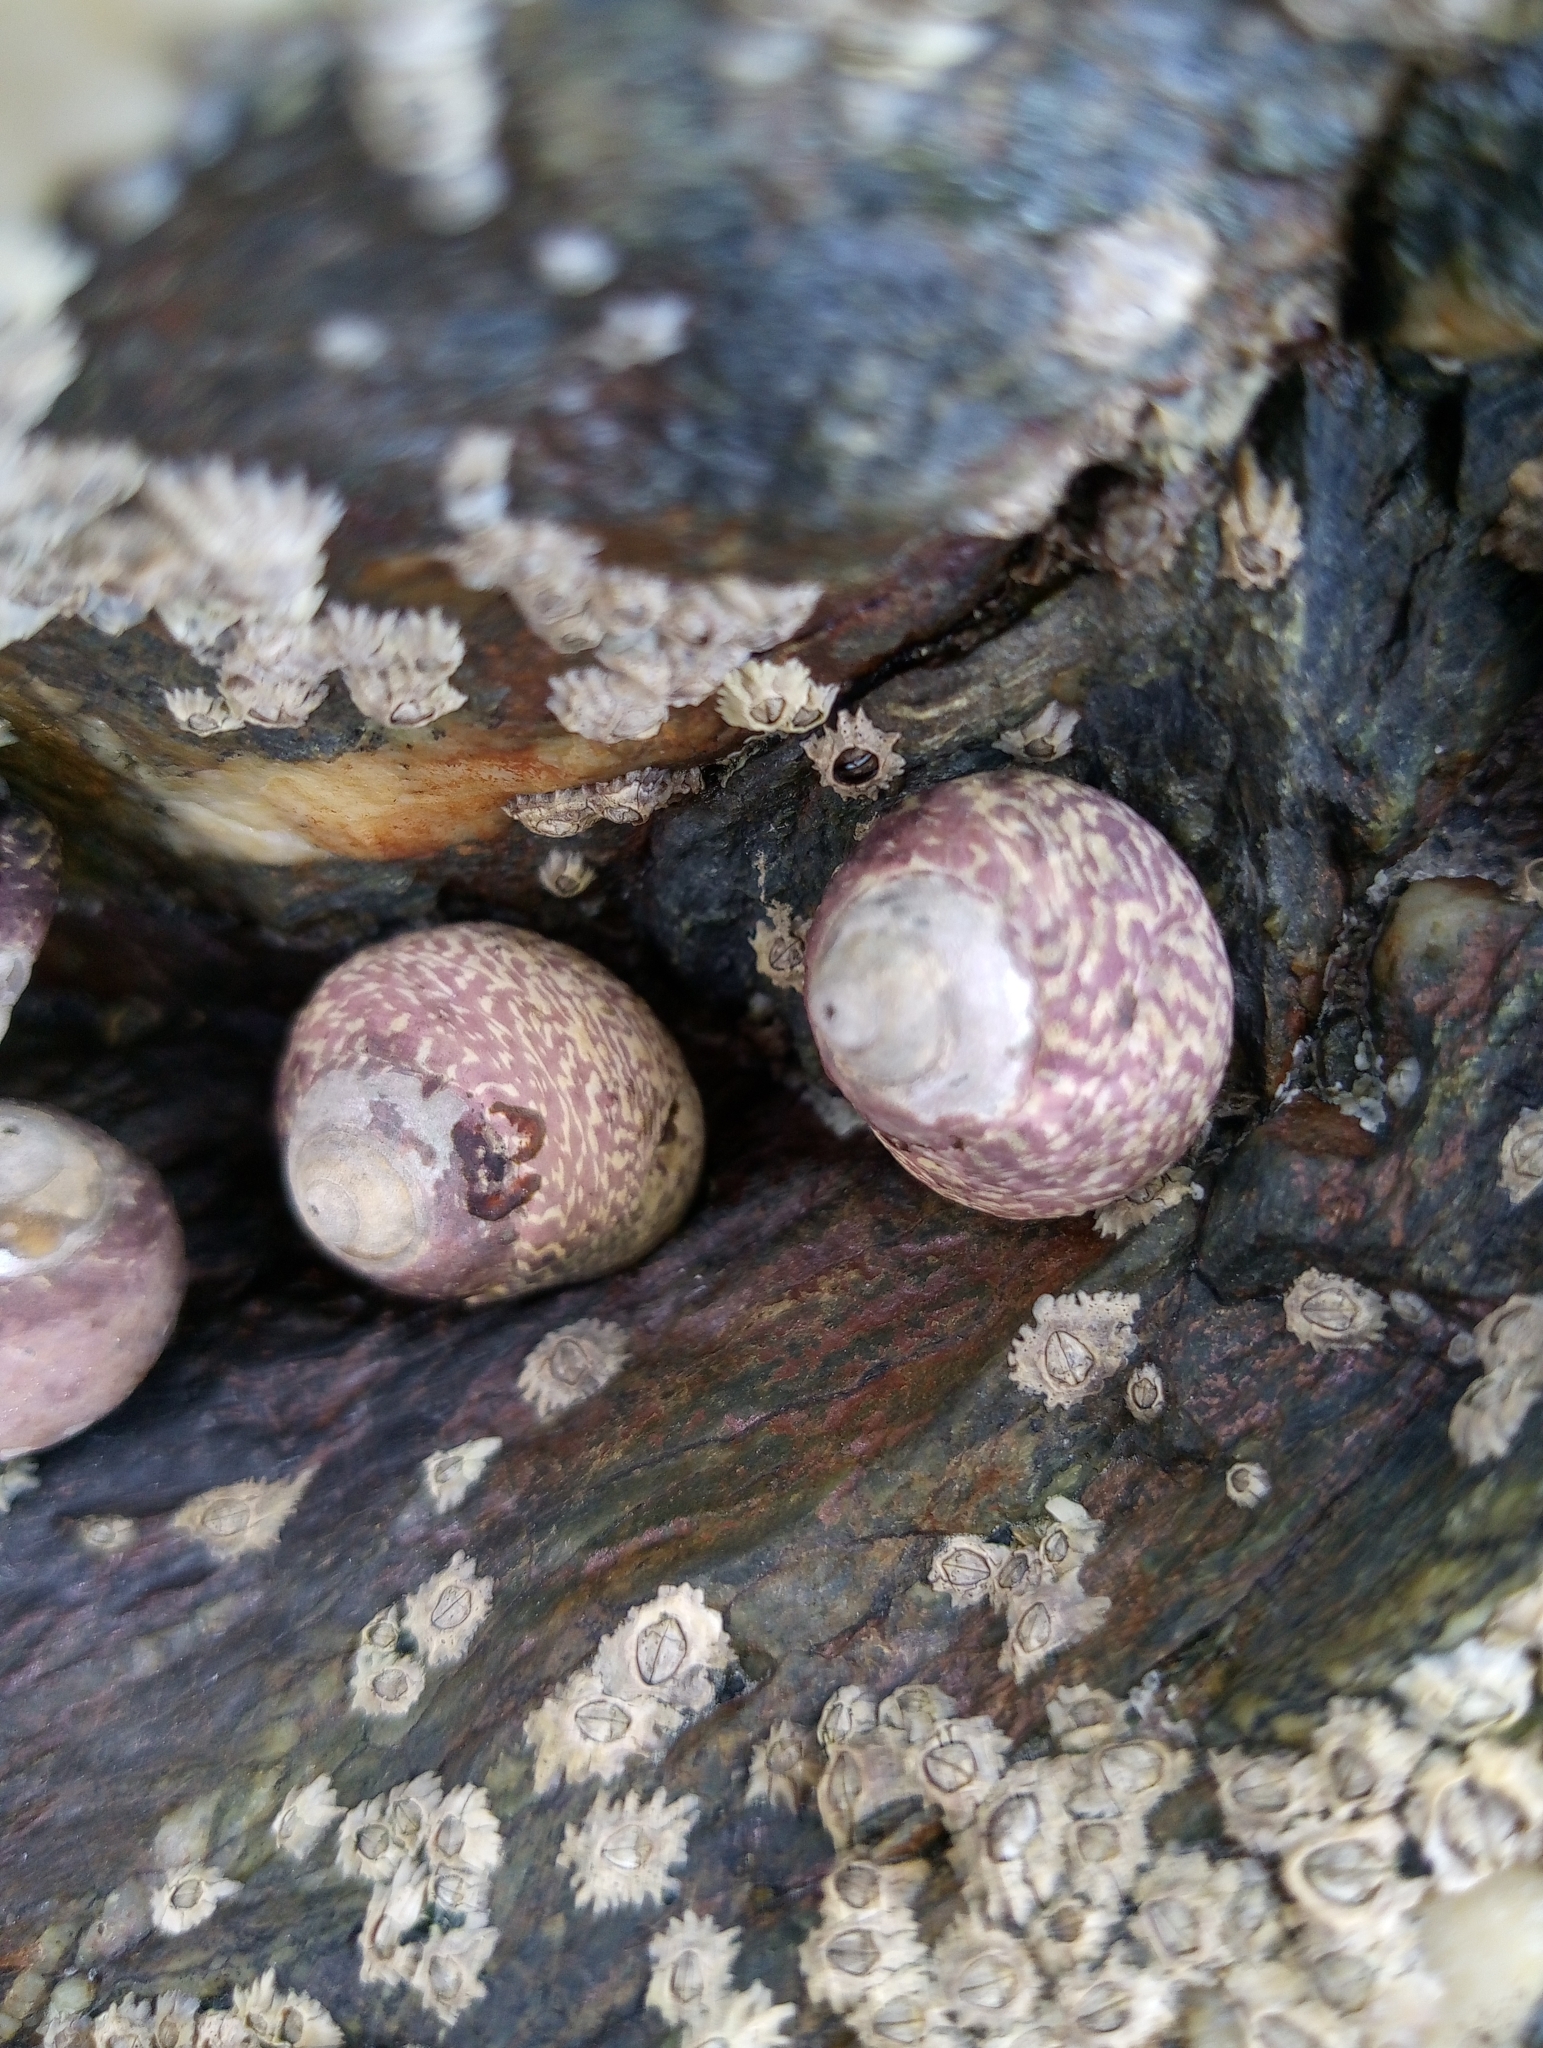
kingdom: Animalia
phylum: Mollusca
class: Gastropoda
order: Trochida
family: Trochidae
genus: Phorcus
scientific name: Phorcus lineatus
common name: Toothed top shell
